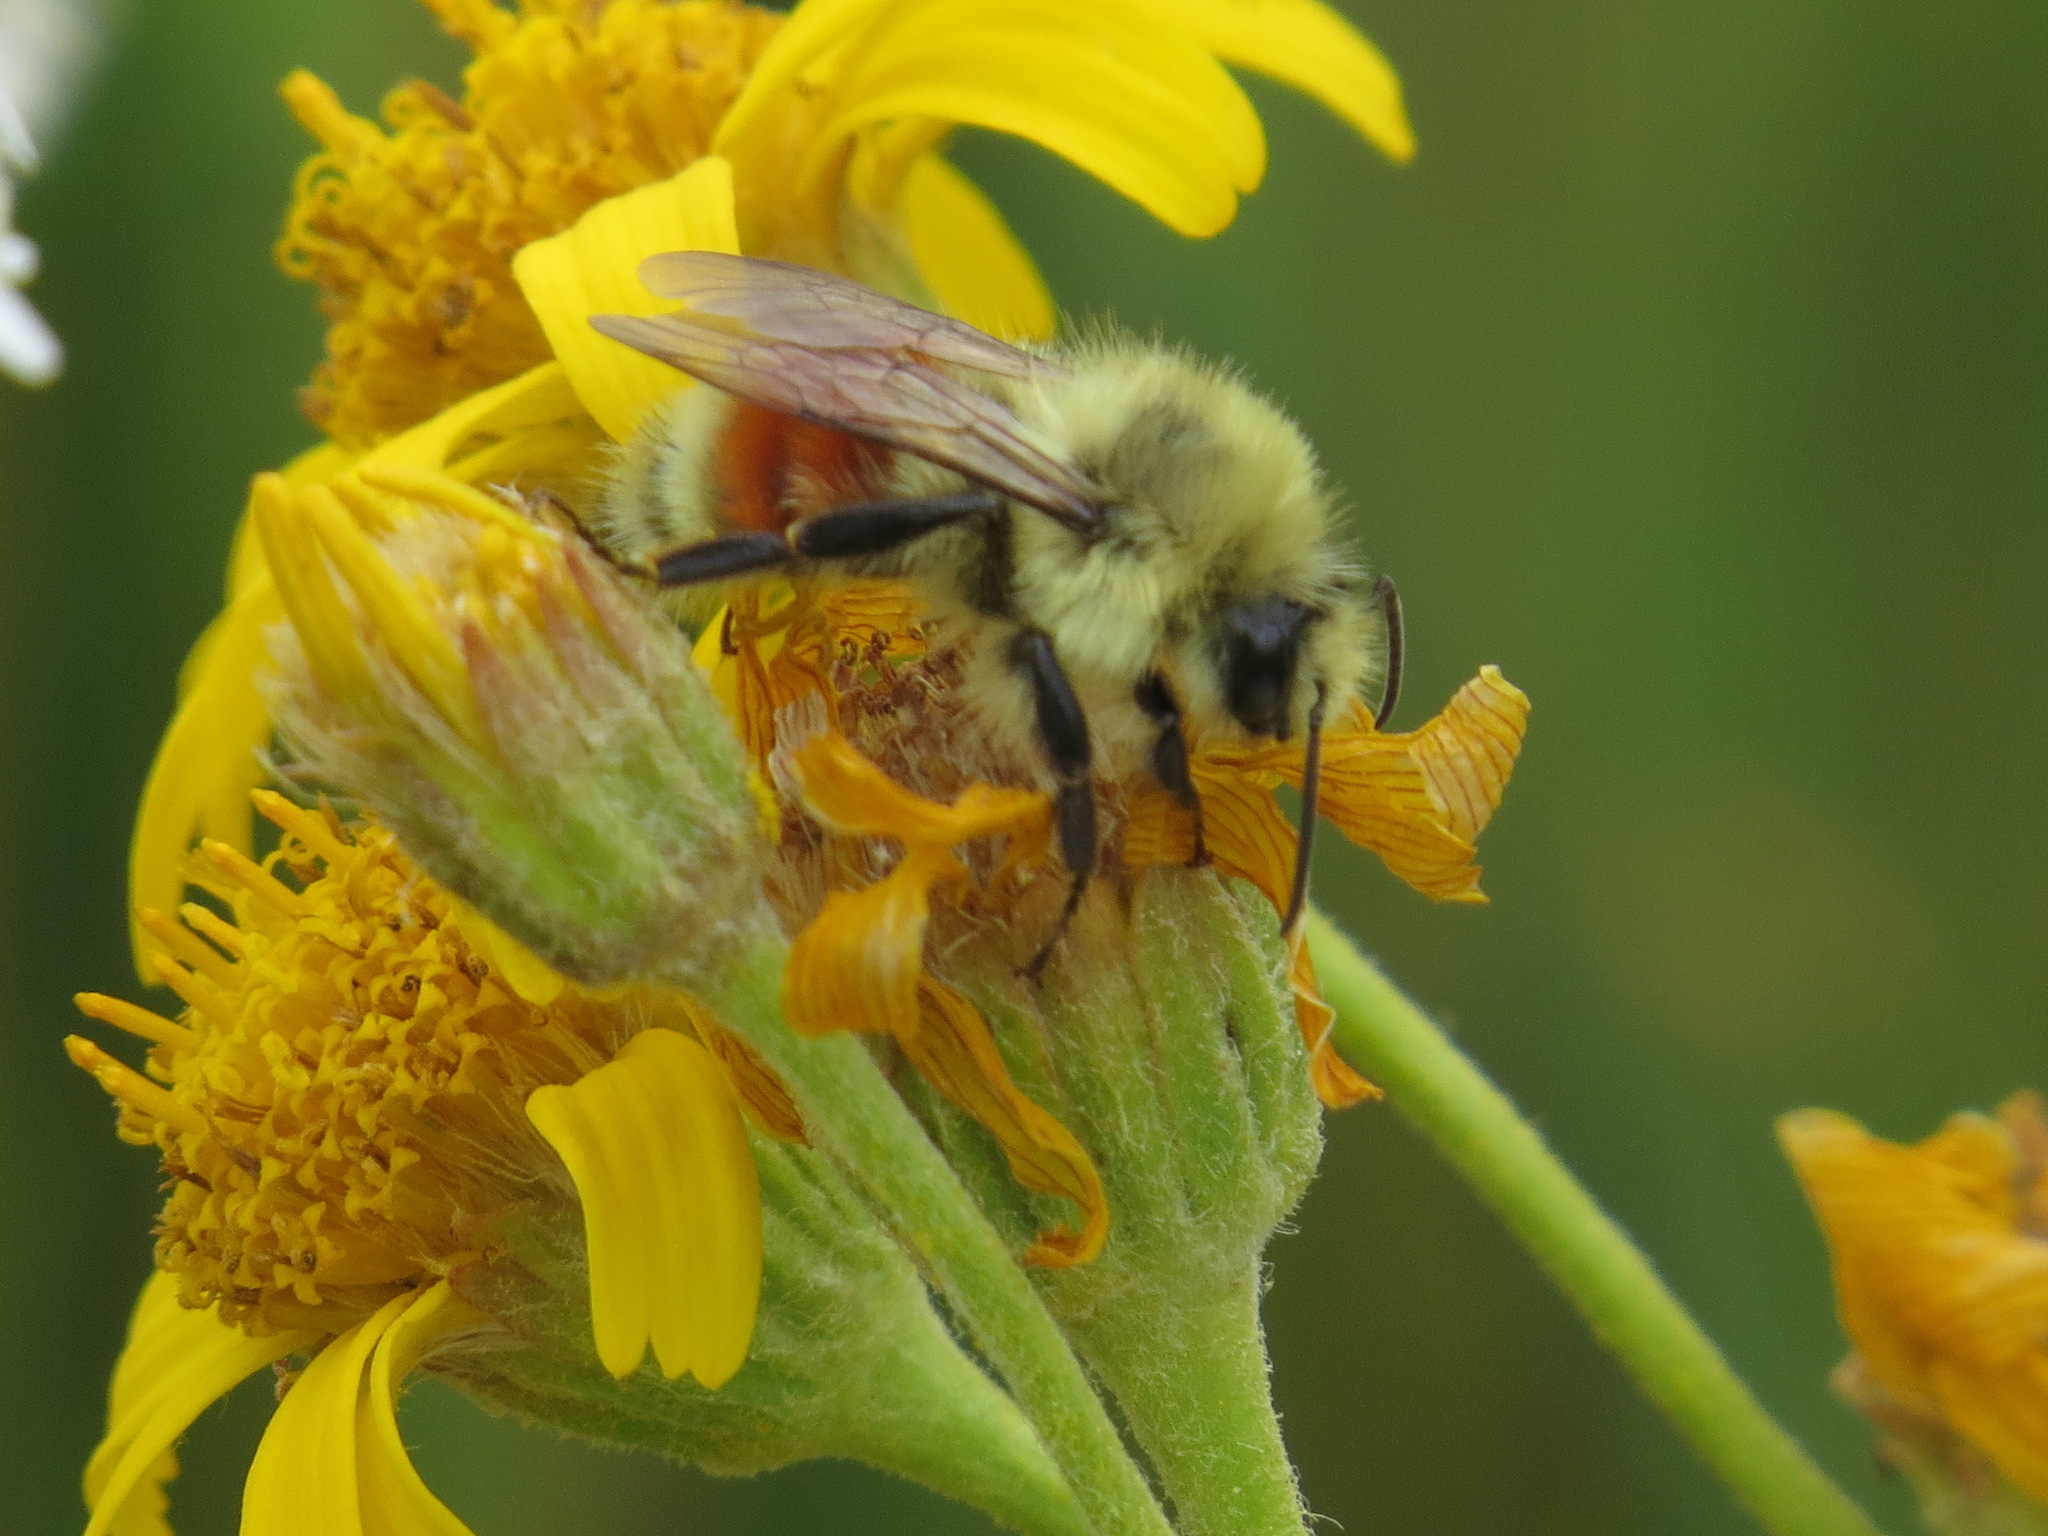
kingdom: Animalia
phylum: Arthropoda
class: Insecta
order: Hymenoptera
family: Apidae
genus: Bombus
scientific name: Bombus huntii
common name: Hunt bumble bee
